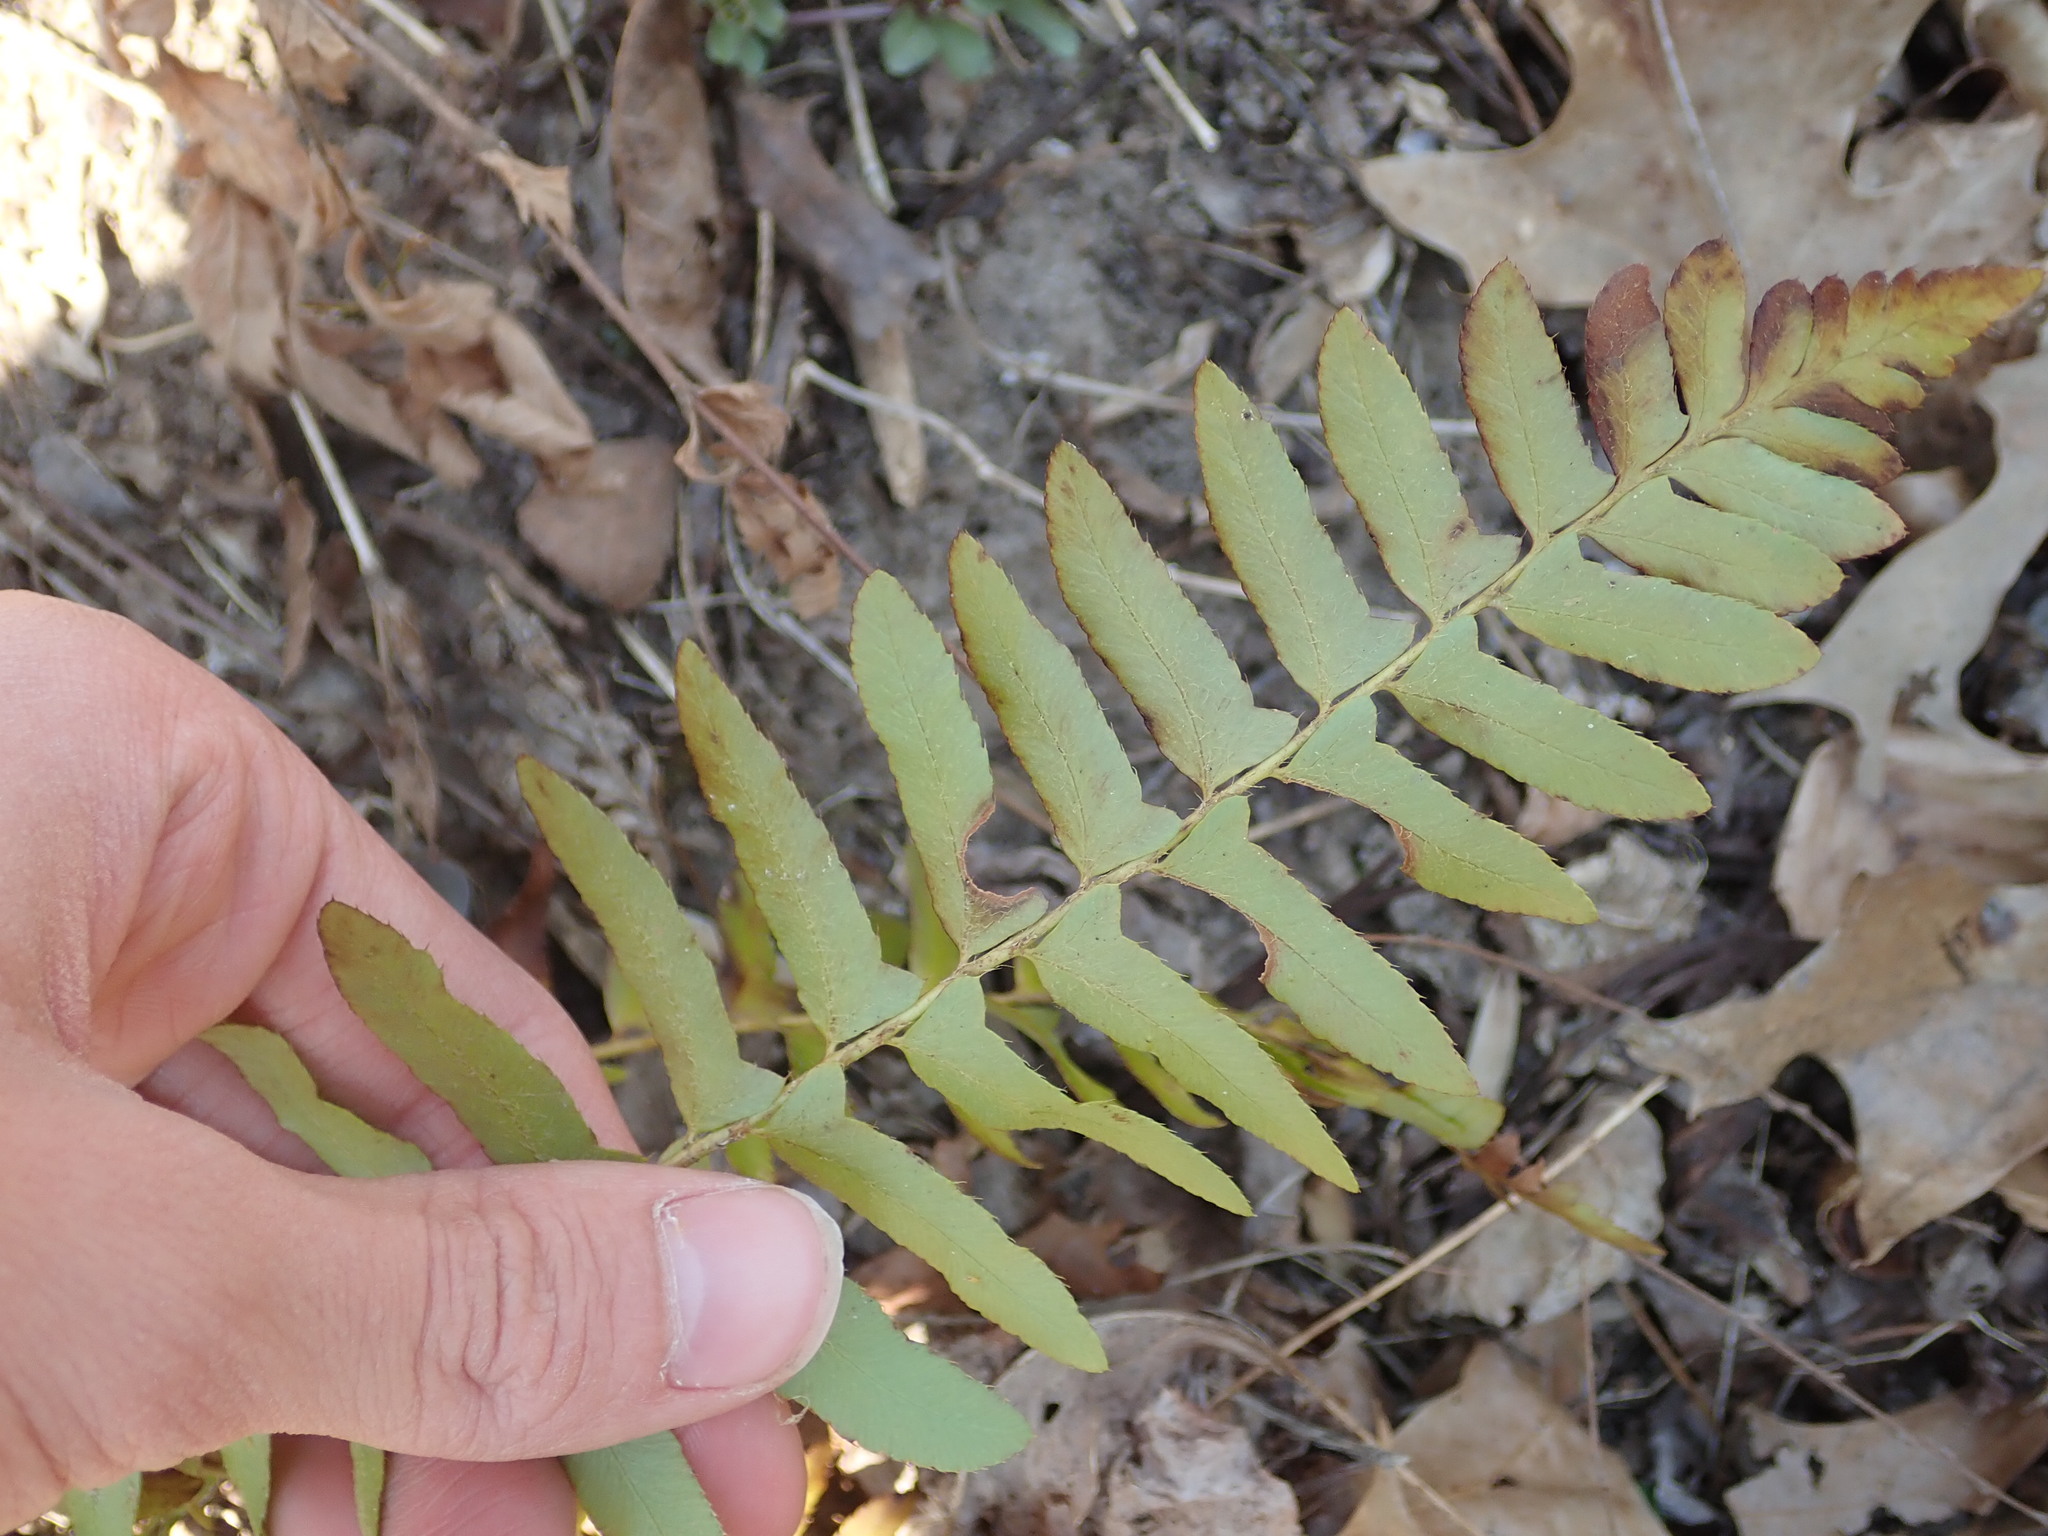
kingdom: Plantae
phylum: Tracheophyta
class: Polypodiopsida
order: Polypodiales
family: Dryopteridaceae
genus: Polystichum
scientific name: Polystichum acrostichoides
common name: Christmas fern
